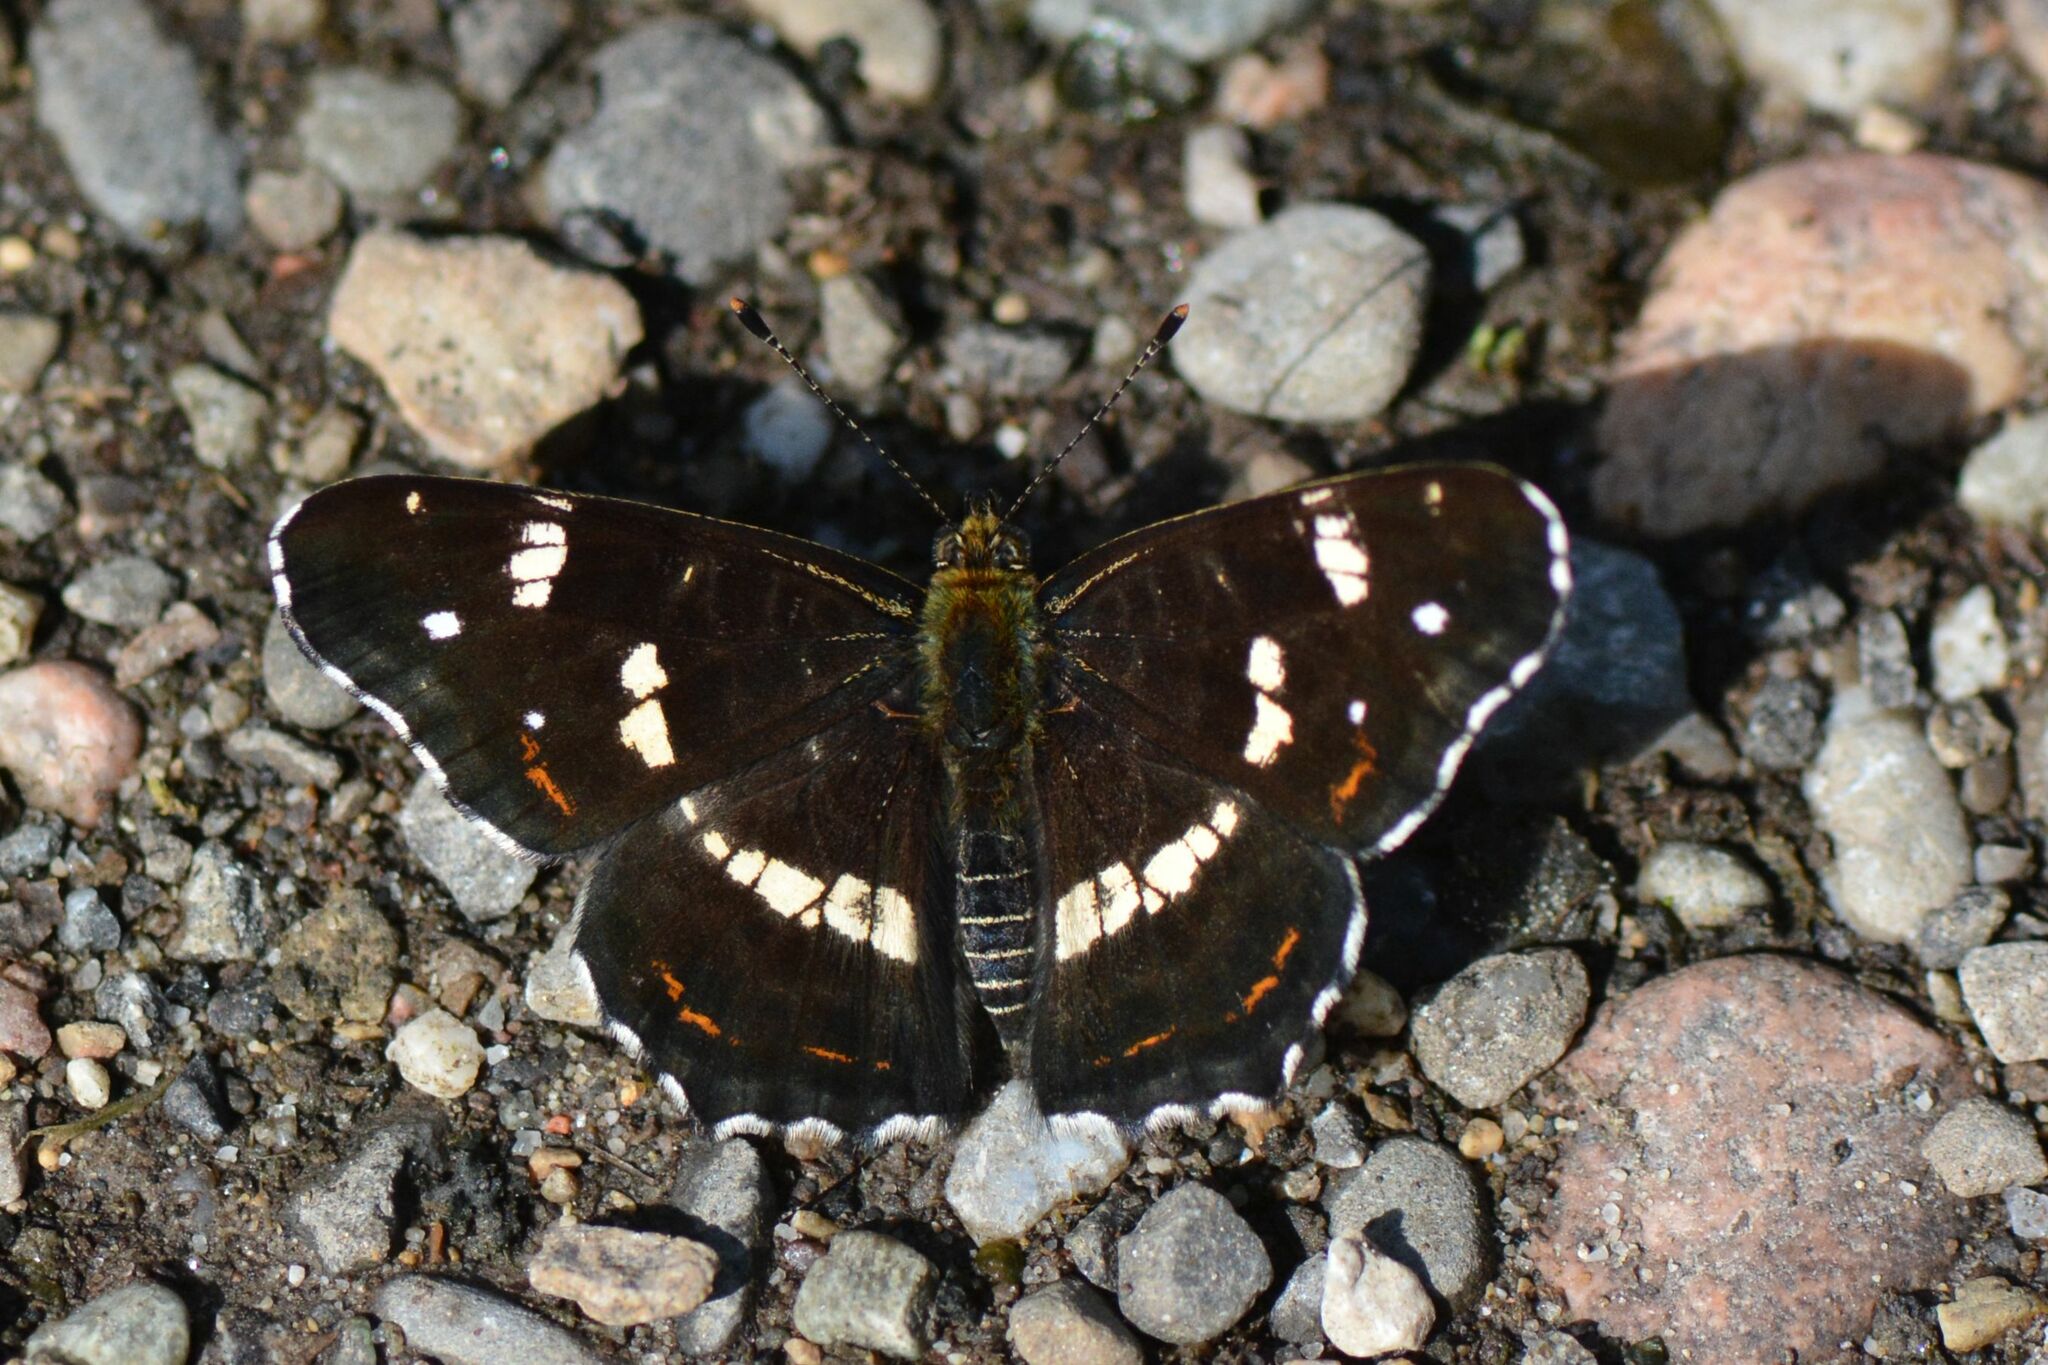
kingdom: Animalia
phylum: Arthropoda
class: Insecta
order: Lepidoptera
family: Nymphalidae
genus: Araschnia
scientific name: Araschnia levana
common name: Map butterfly
